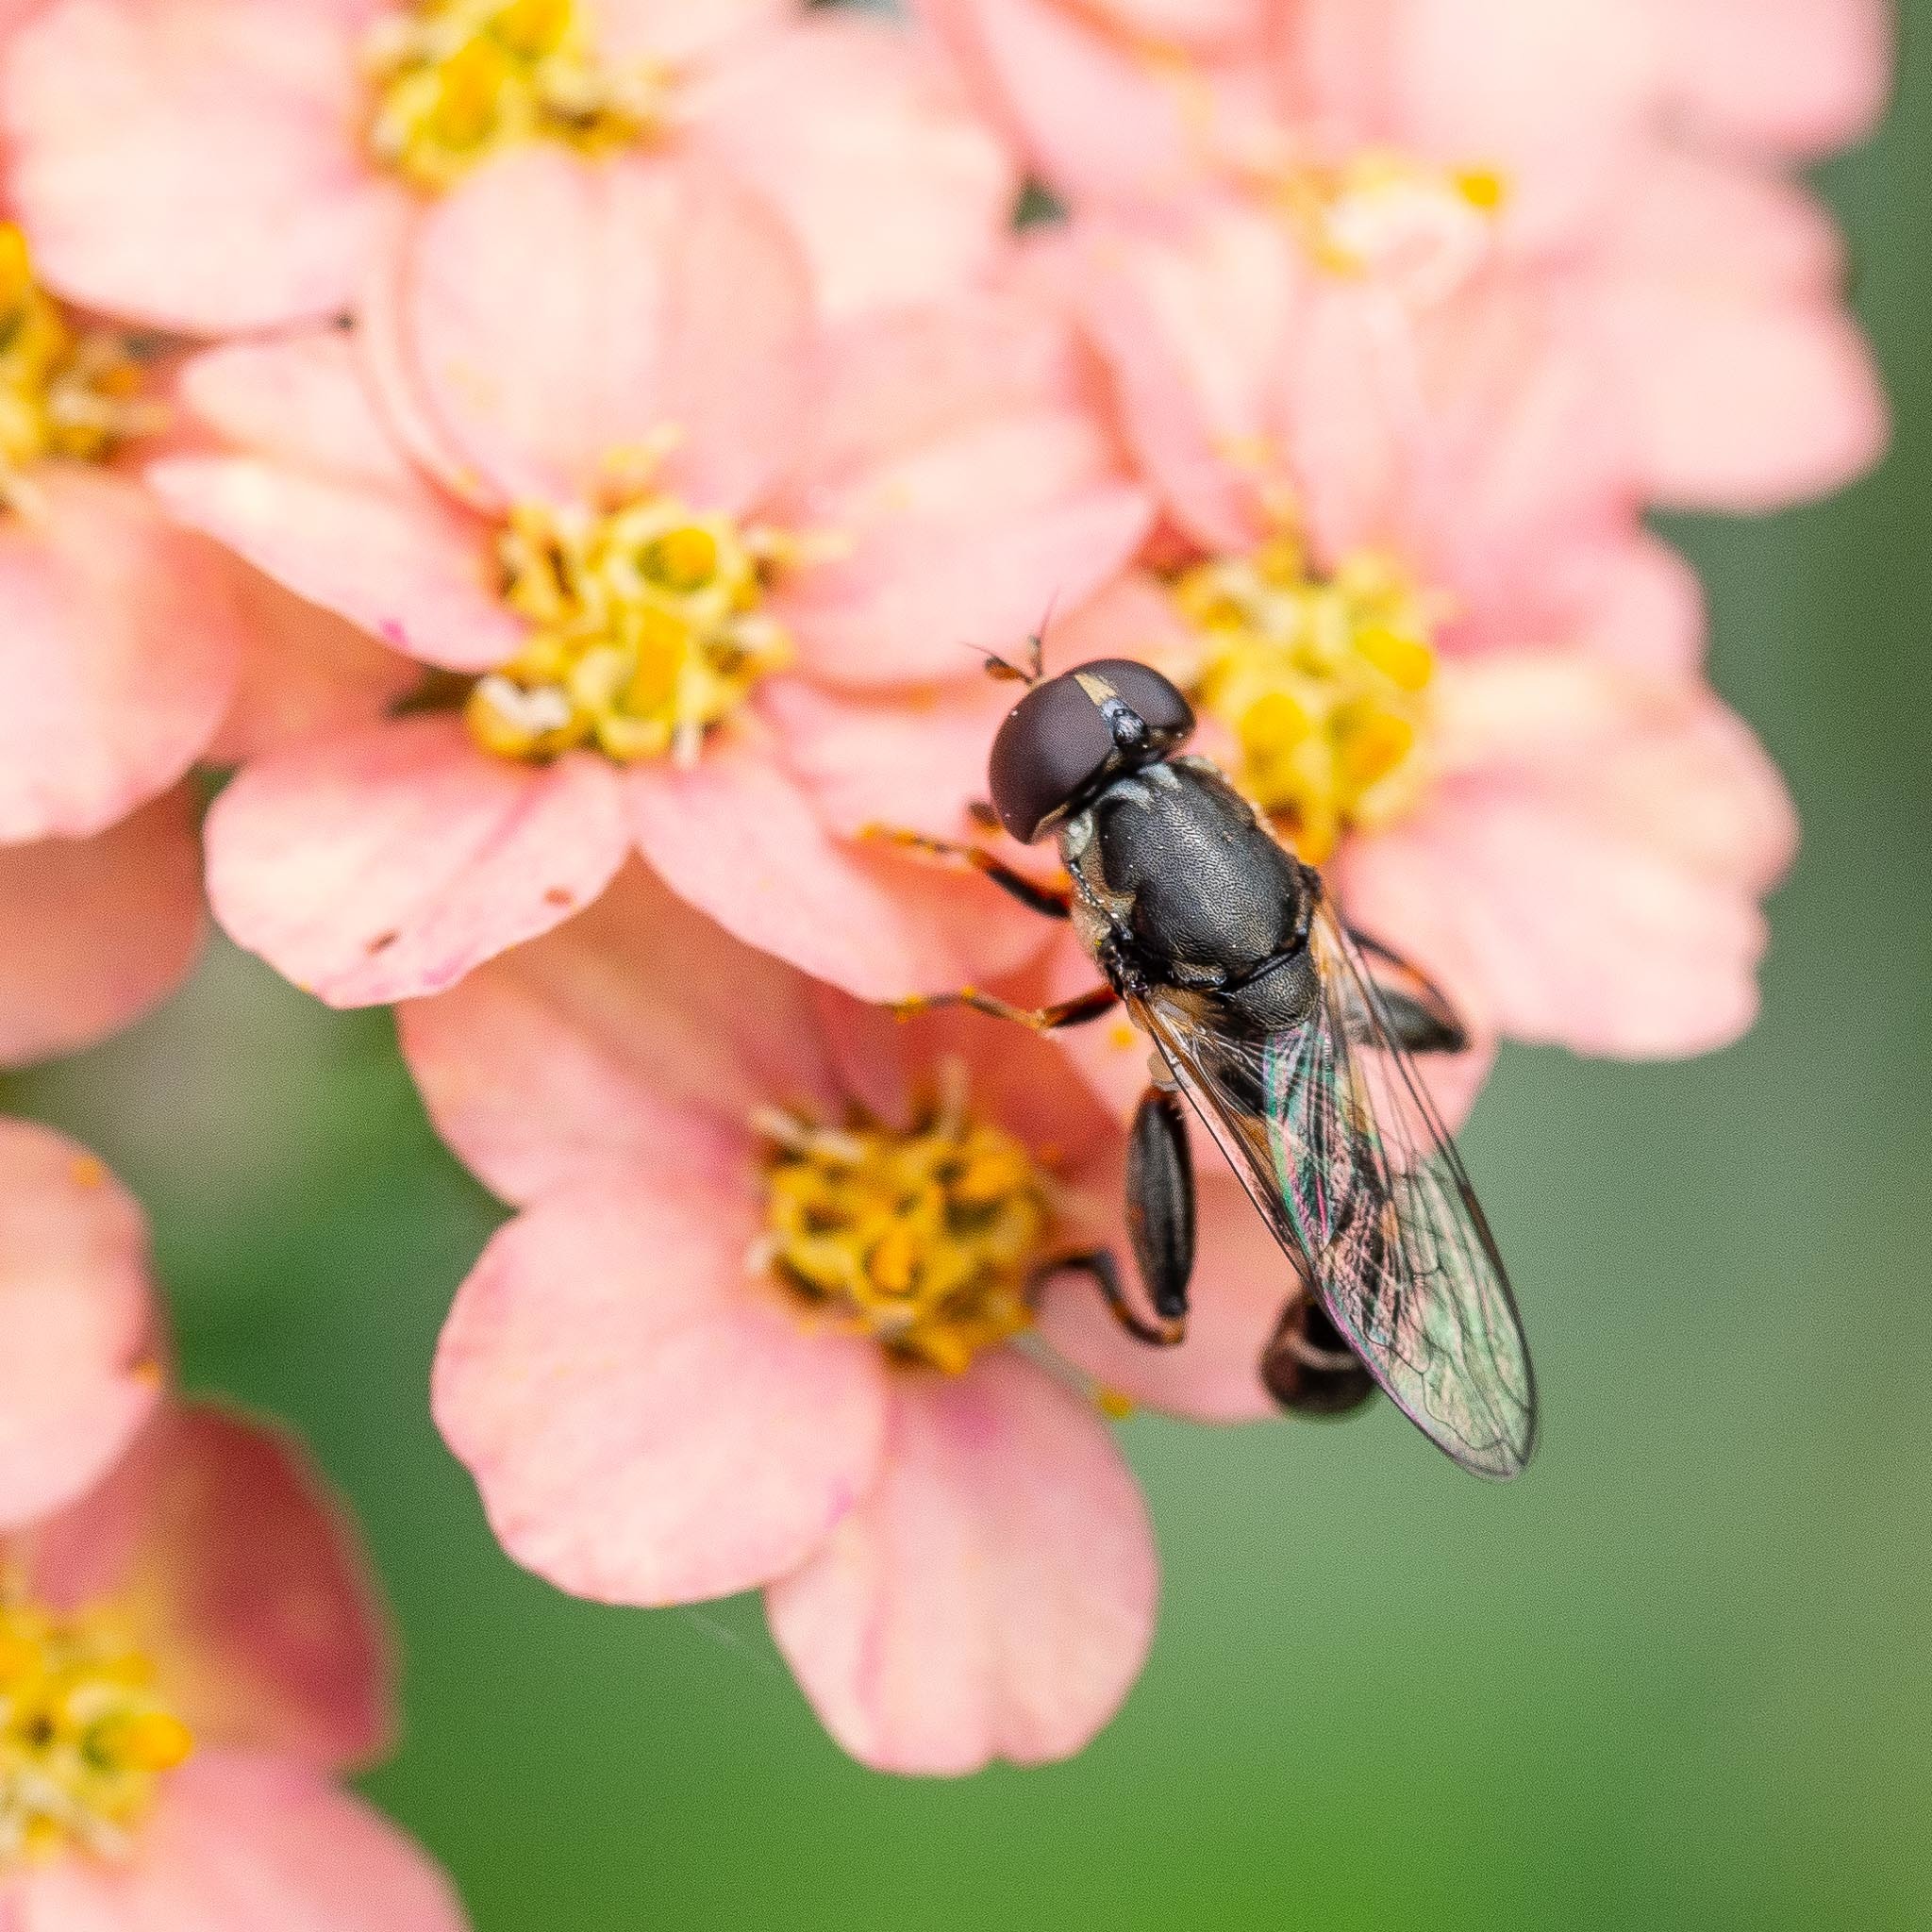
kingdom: Animalia
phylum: Arthropoda
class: Insecta
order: Diptera
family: Syrphidae
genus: Syritta
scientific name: Syritta pipiens
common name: Hover fly
